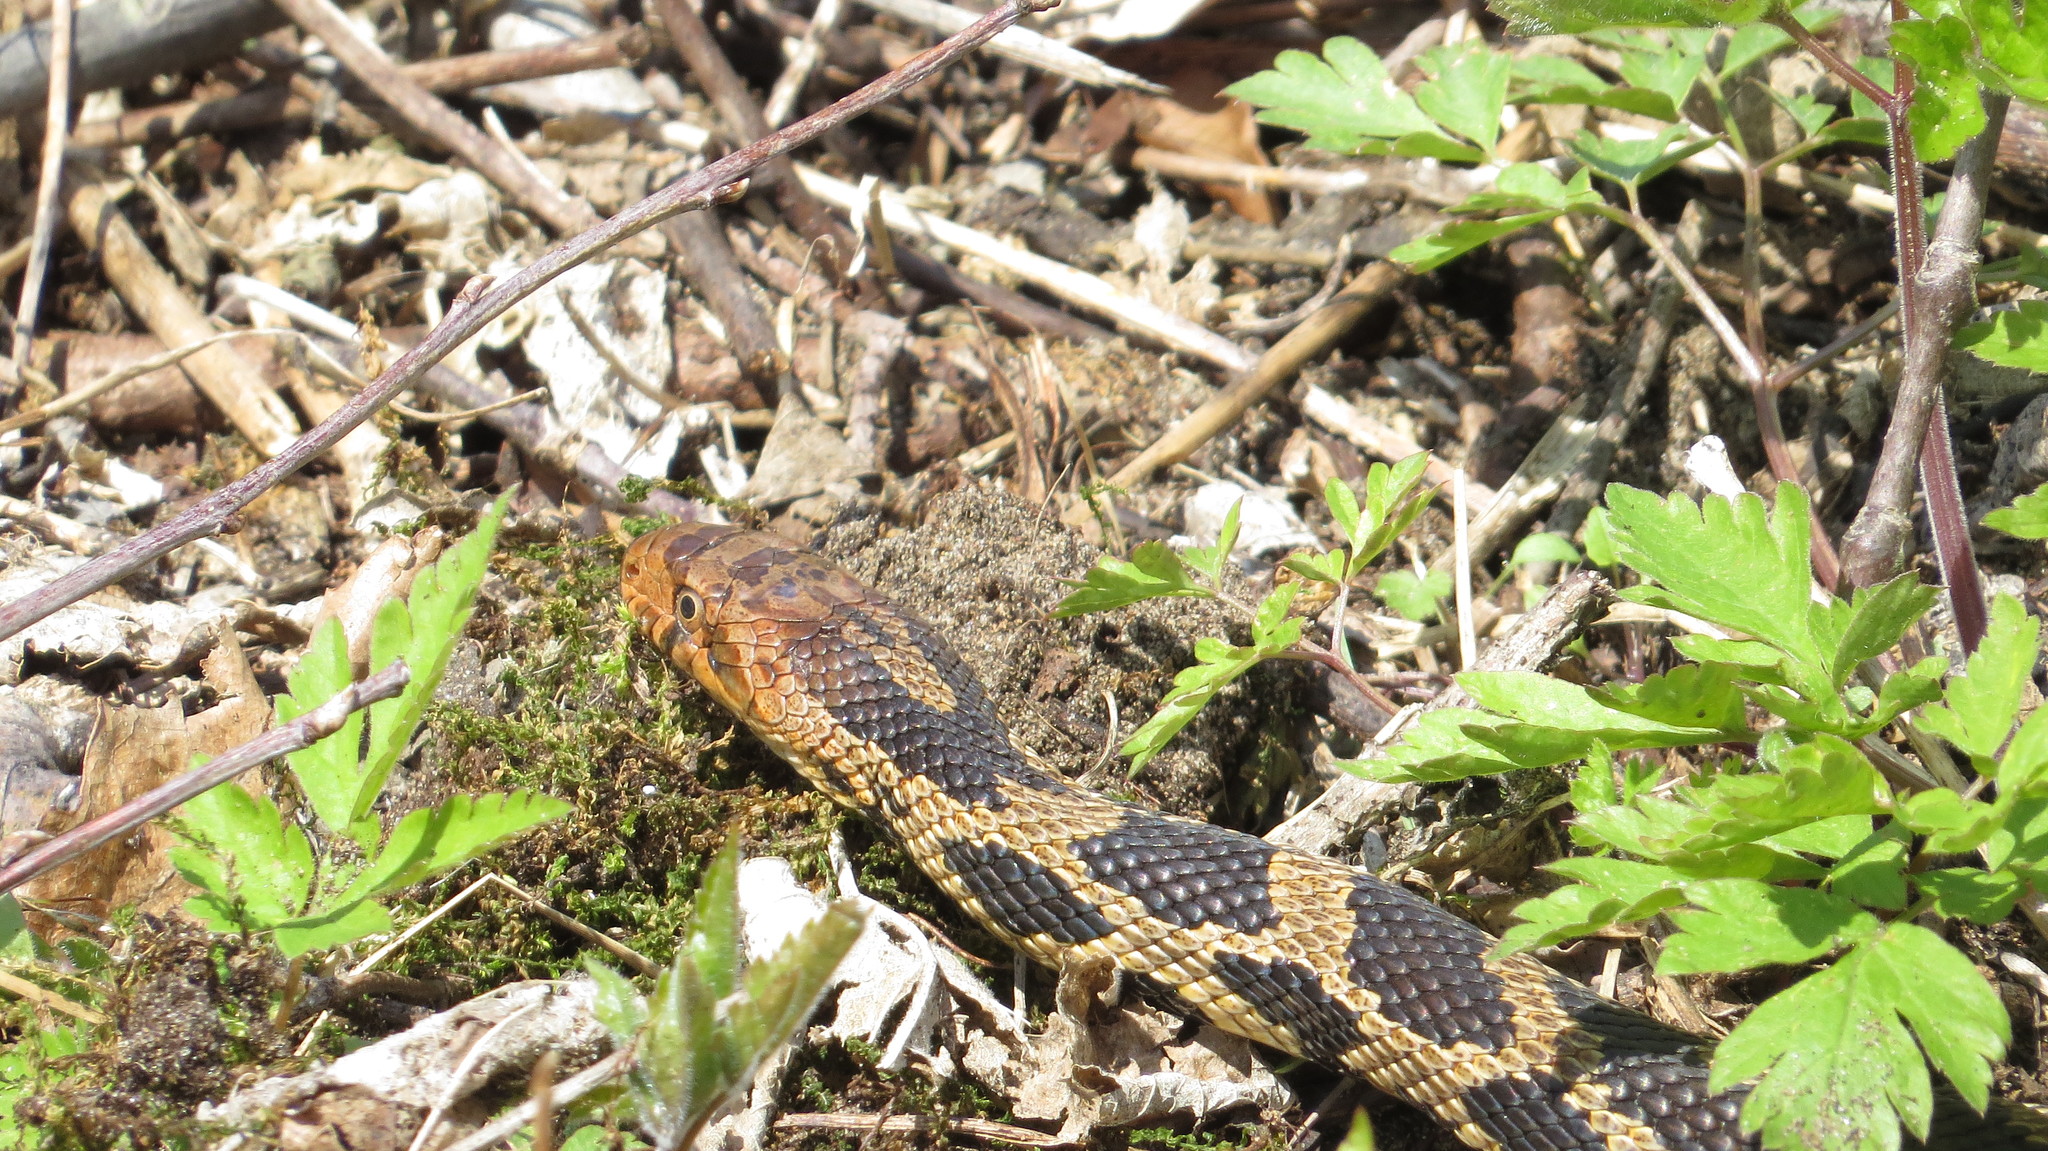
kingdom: Animalia
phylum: Chordata
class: Squamata
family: Colubridae
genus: Pantherophis
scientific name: Pantherophis vulpinus
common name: Eastern fox snake
